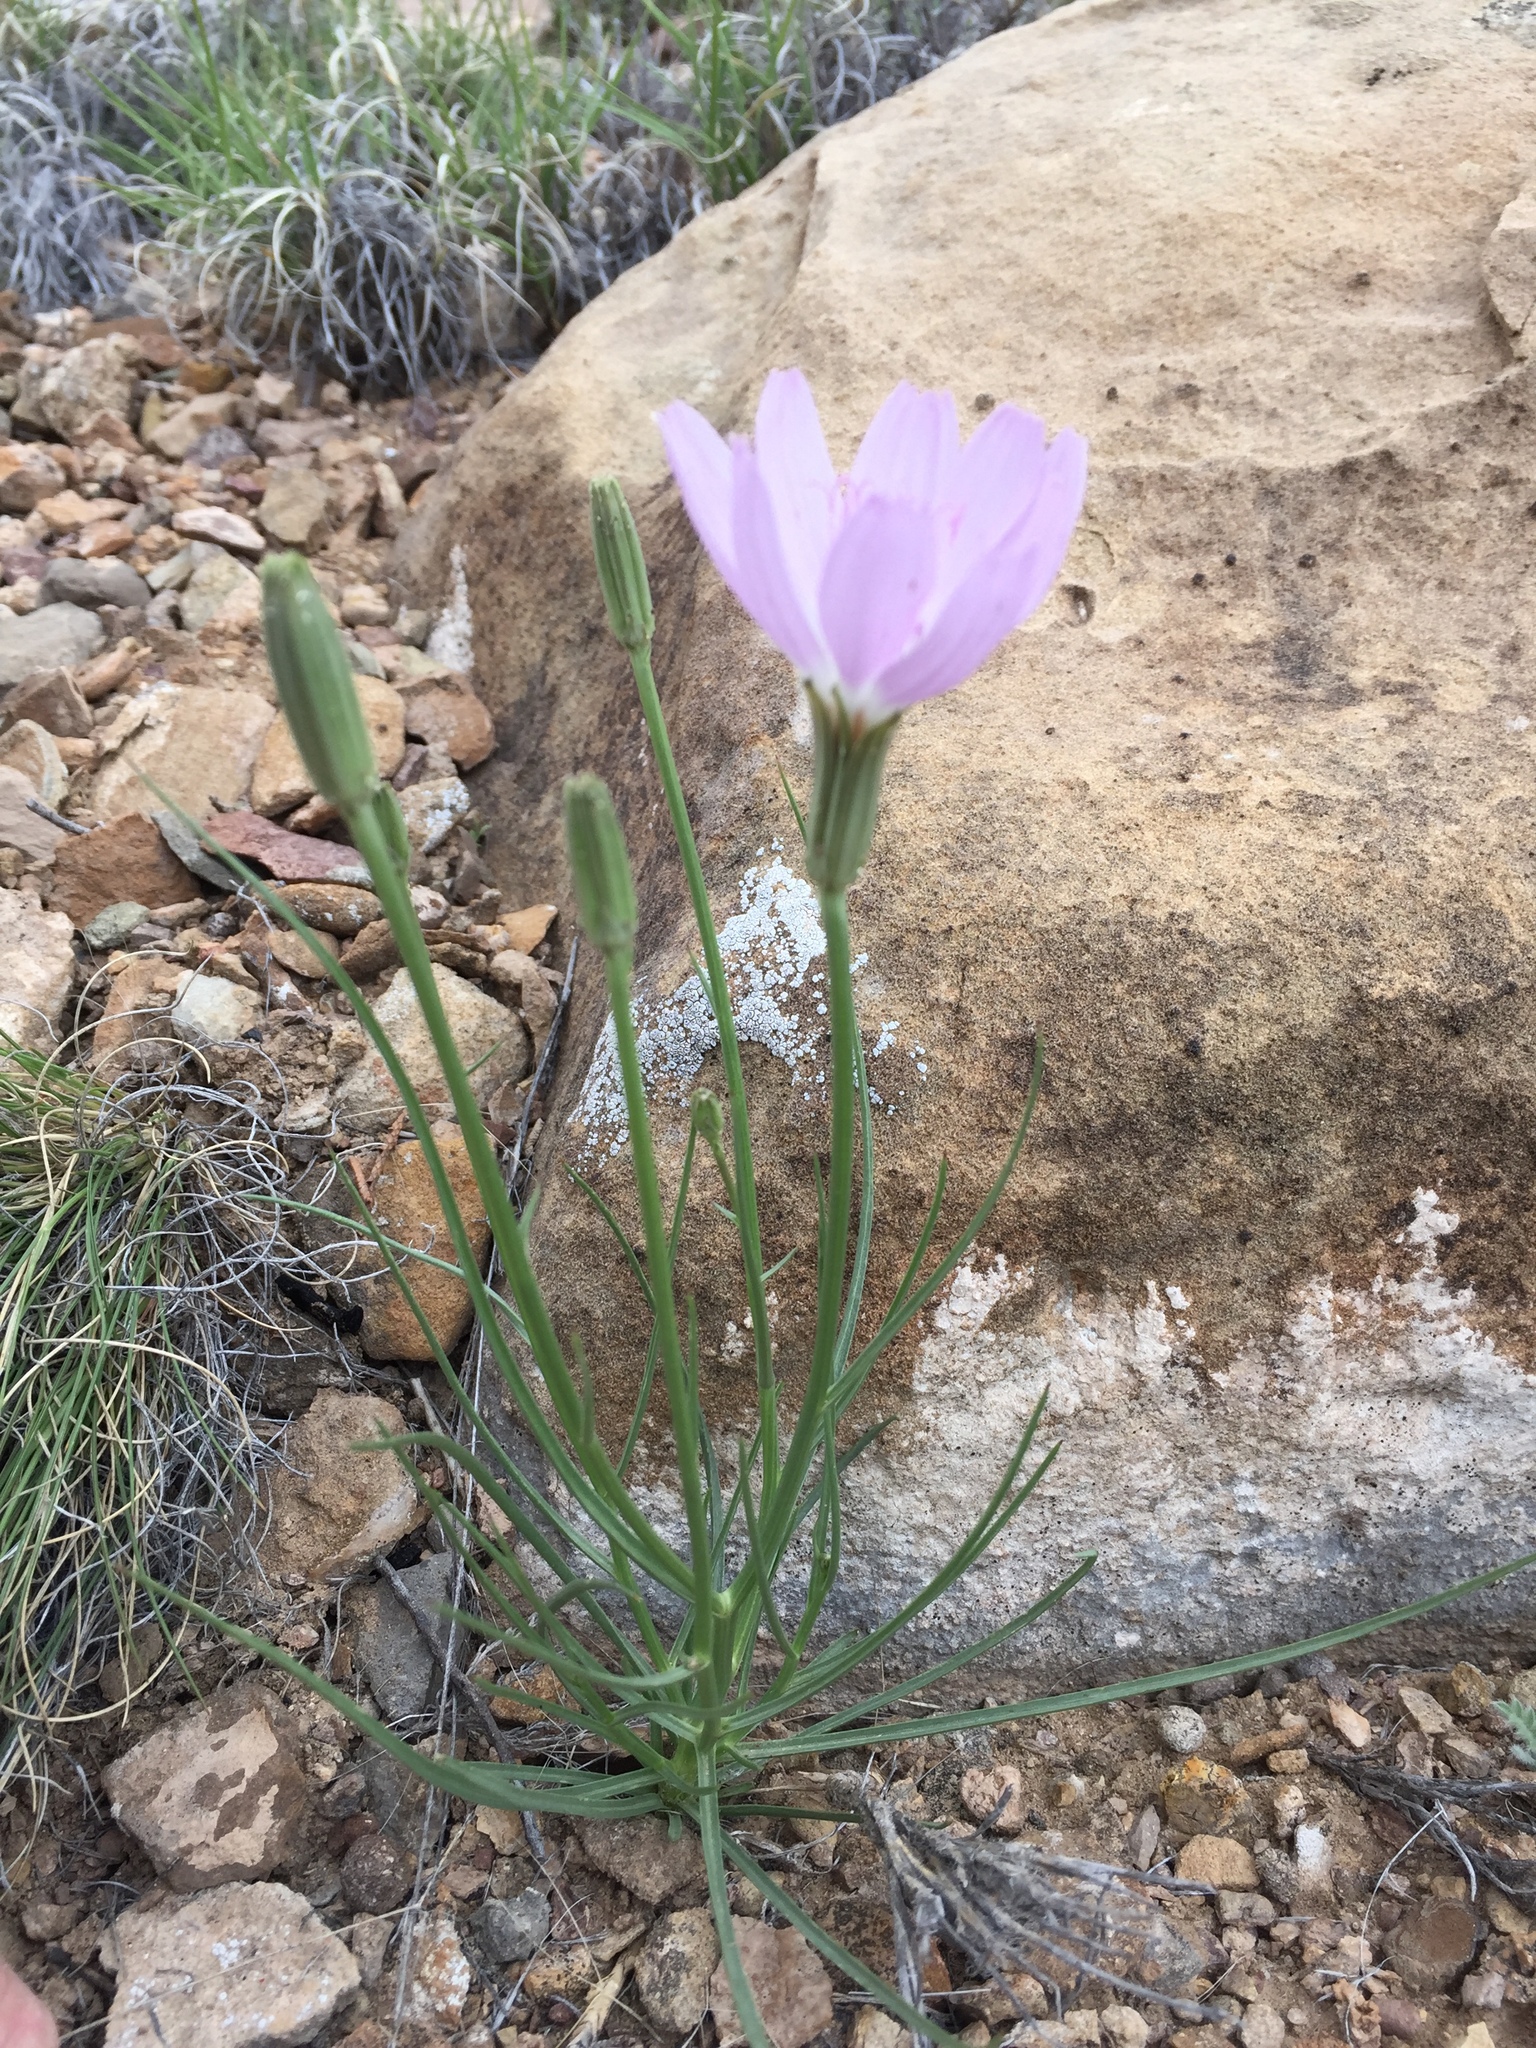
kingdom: Plantae
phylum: Tracheophyta
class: Magnoliopsida
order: Asterales
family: Asteraceae
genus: Lygodesmia
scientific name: Lygodesmia grandiflora
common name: Showy rush-pink
